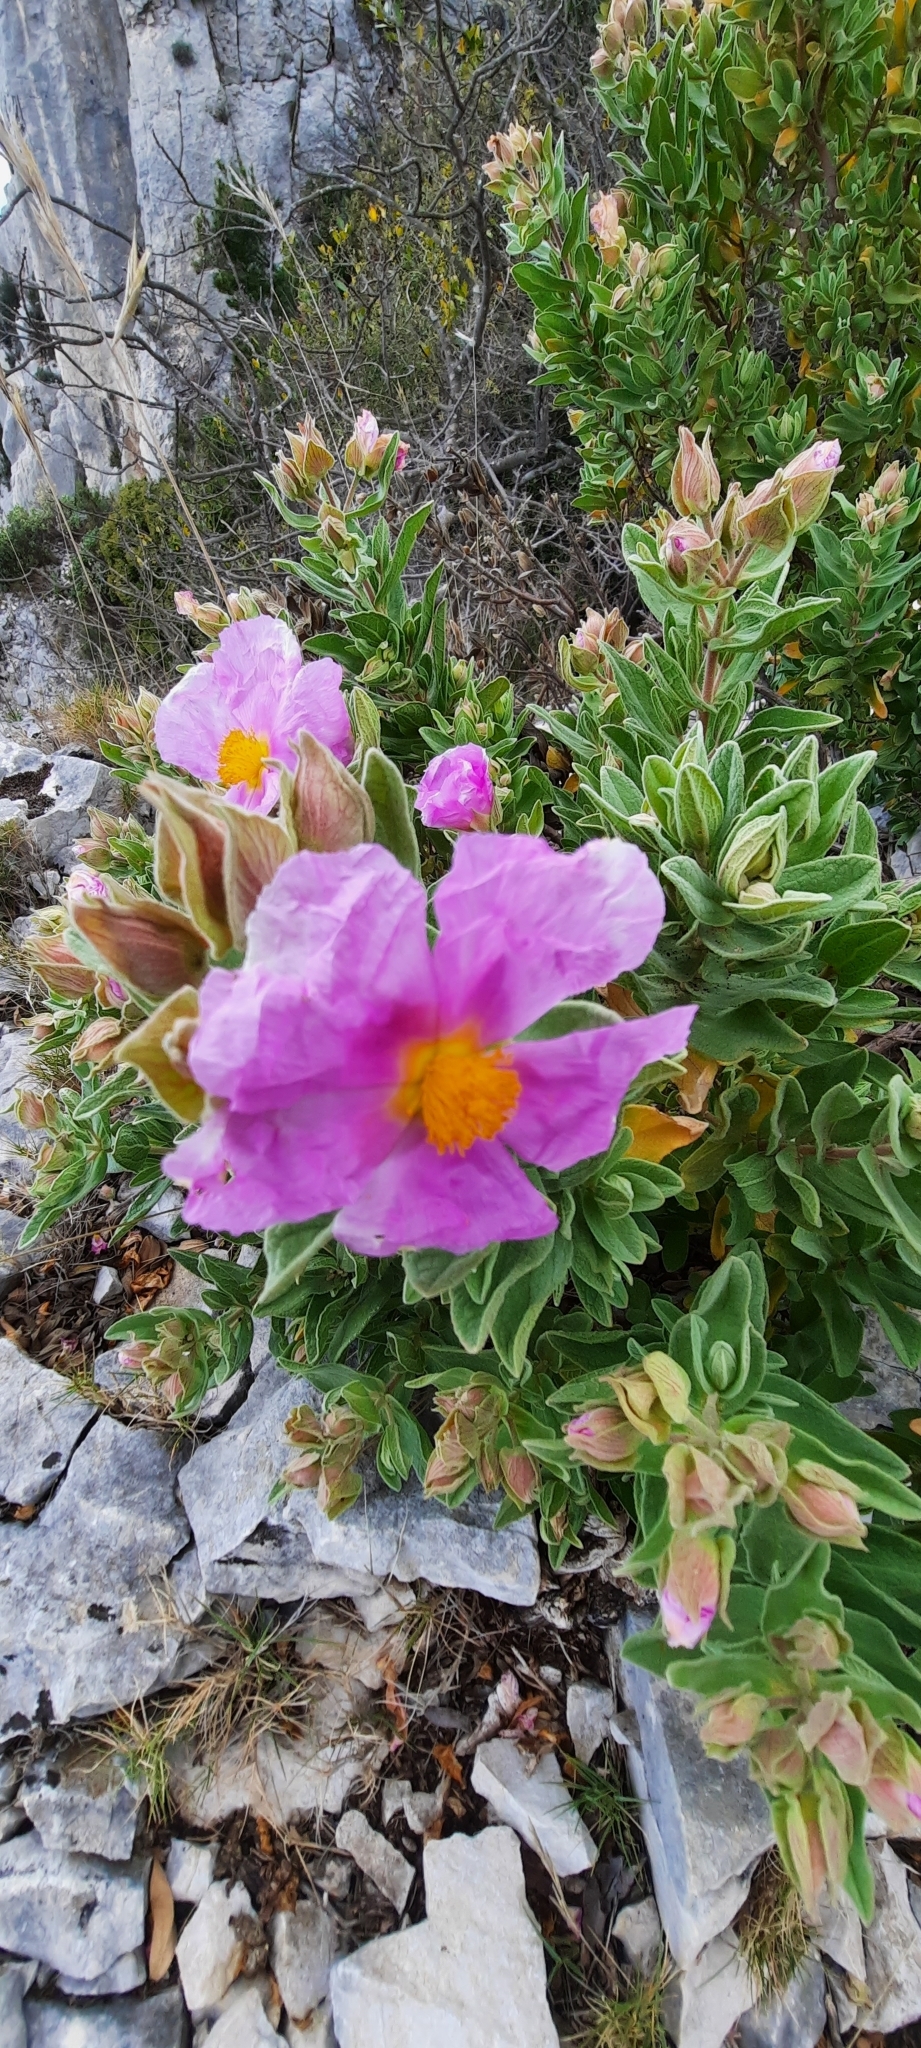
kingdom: Plantae
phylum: Tracheophyta
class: Magnoliopsida
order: Malvales
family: Cistaceae
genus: Cistus
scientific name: Cistus albidus
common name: White-leaf rock-rose
